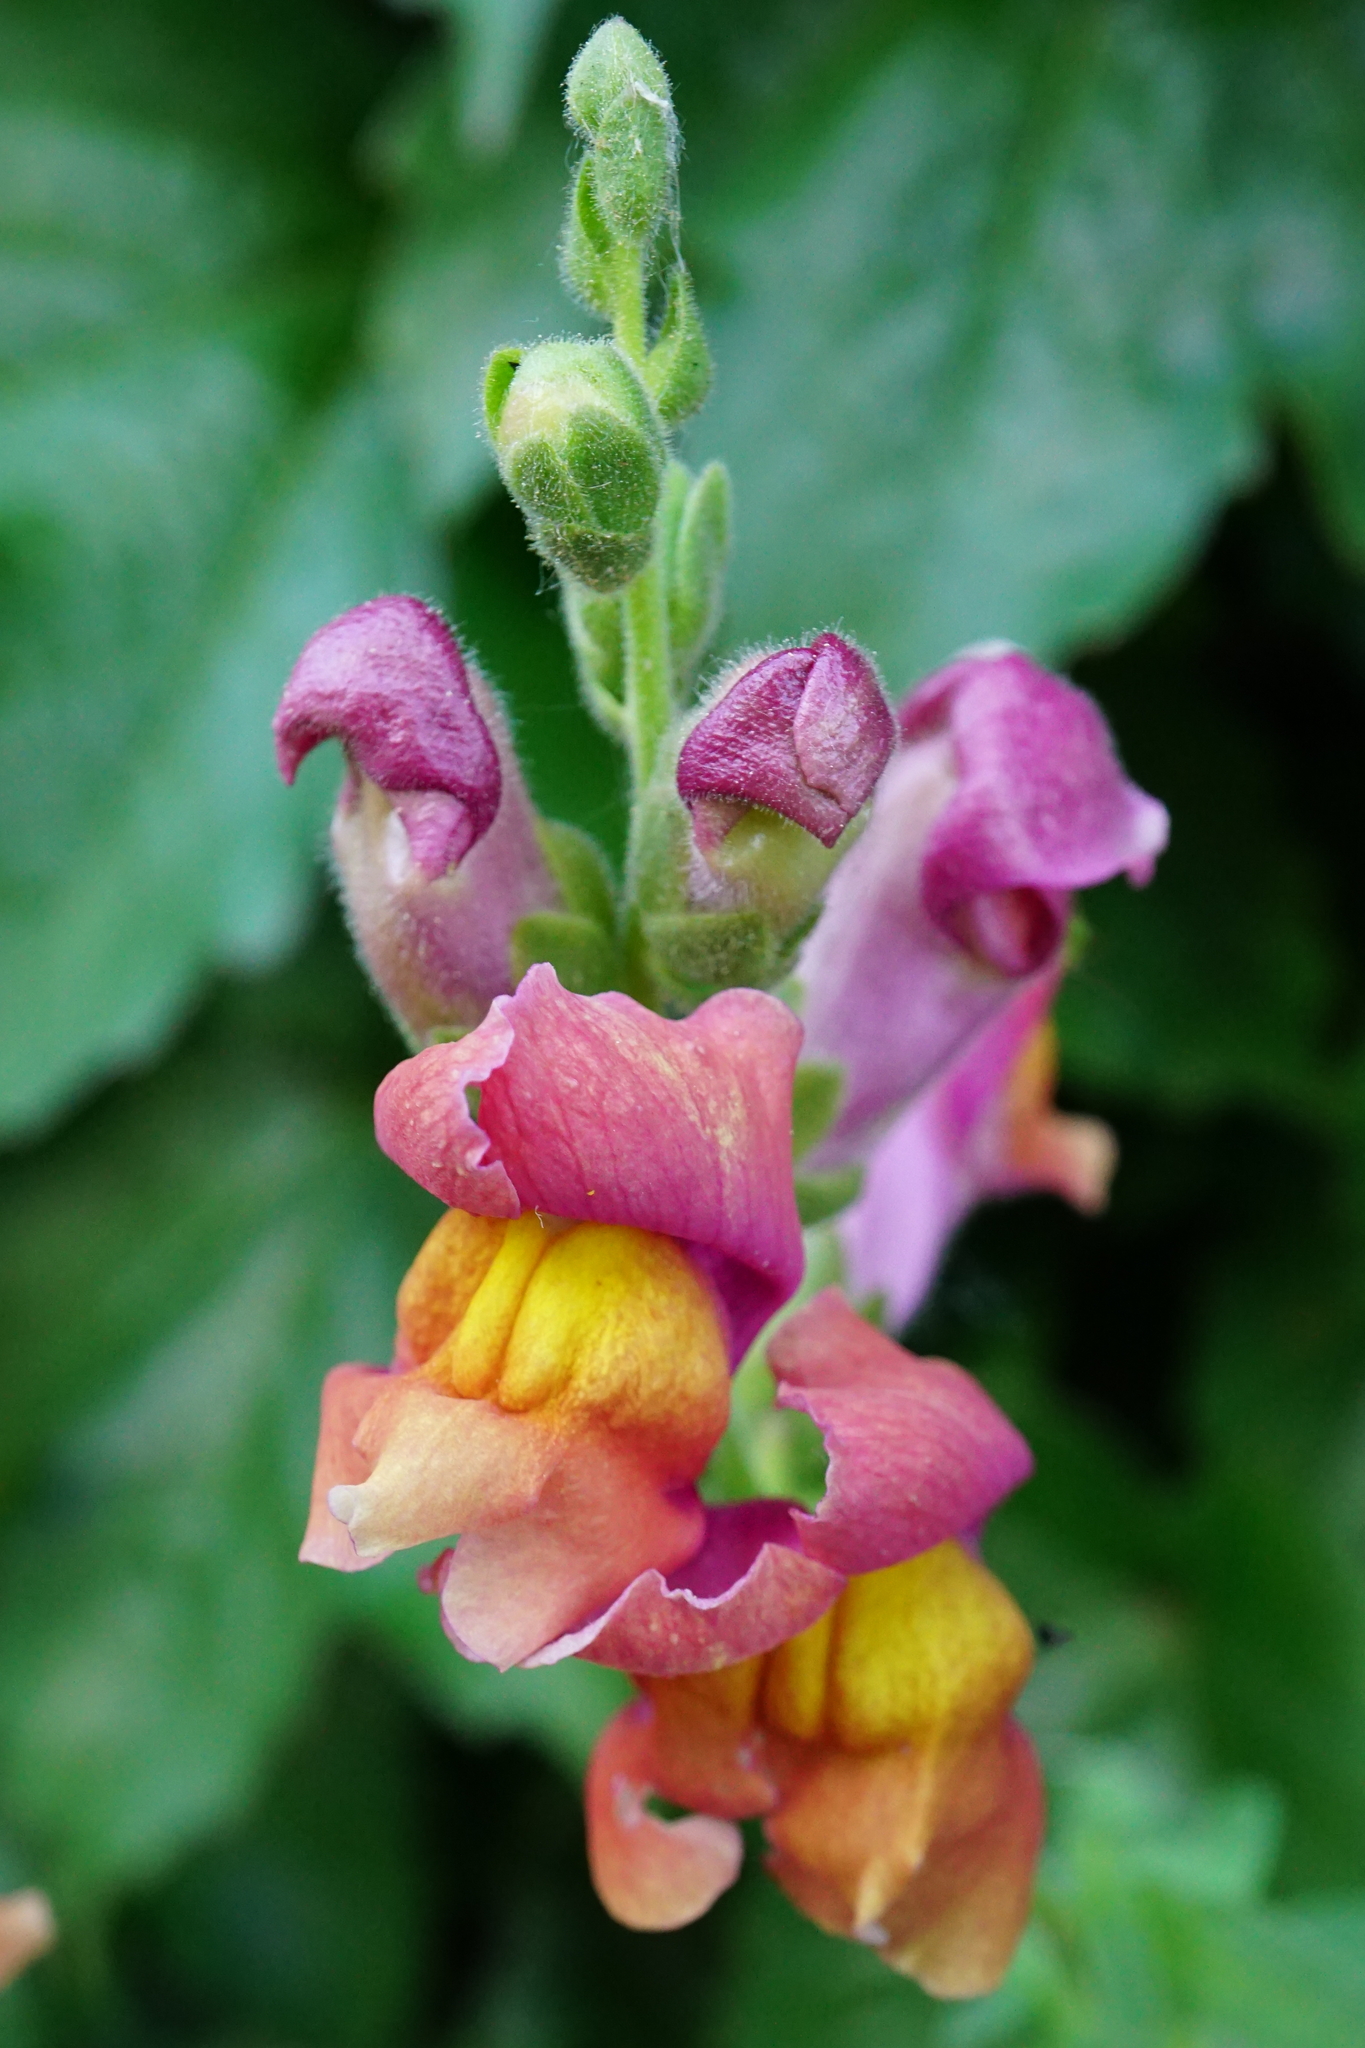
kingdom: Plantae
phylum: Tracheophyta
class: Magnoliopsida
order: Lamiales
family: Plantaginaceae
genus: Antirrhinum
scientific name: Antirrhinum majus
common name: Snapdragon
